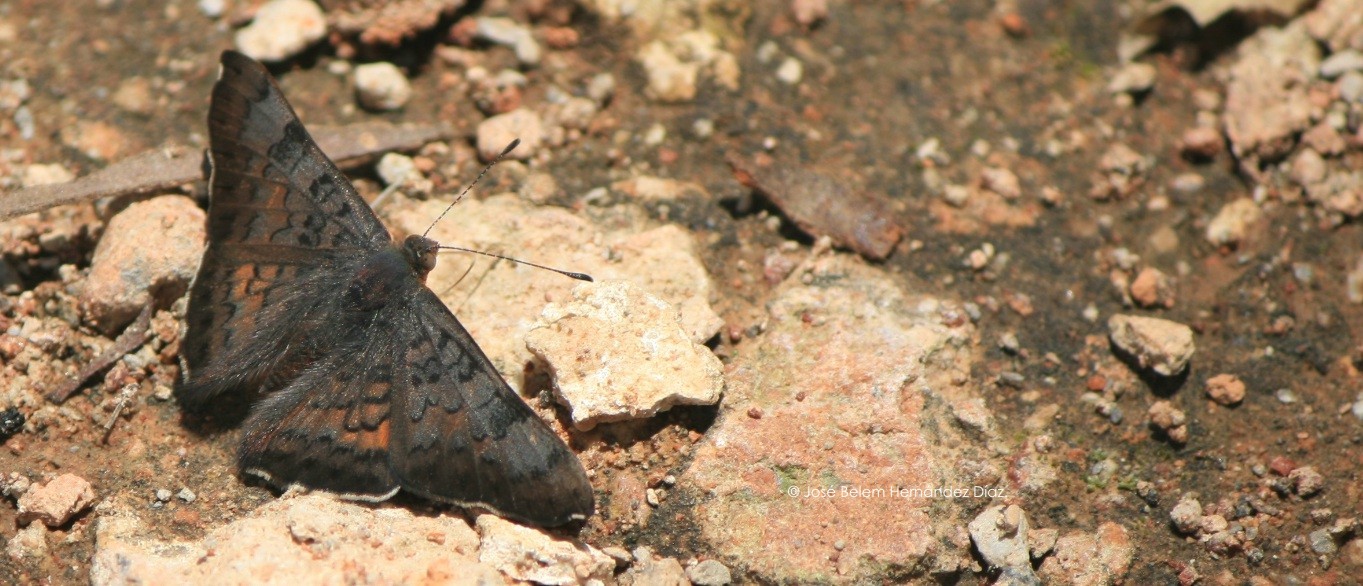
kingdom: Animalia
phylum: Arthropoda
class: Insecta
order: Lepidoptera
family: Riodinidae
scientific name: Riodinidae
